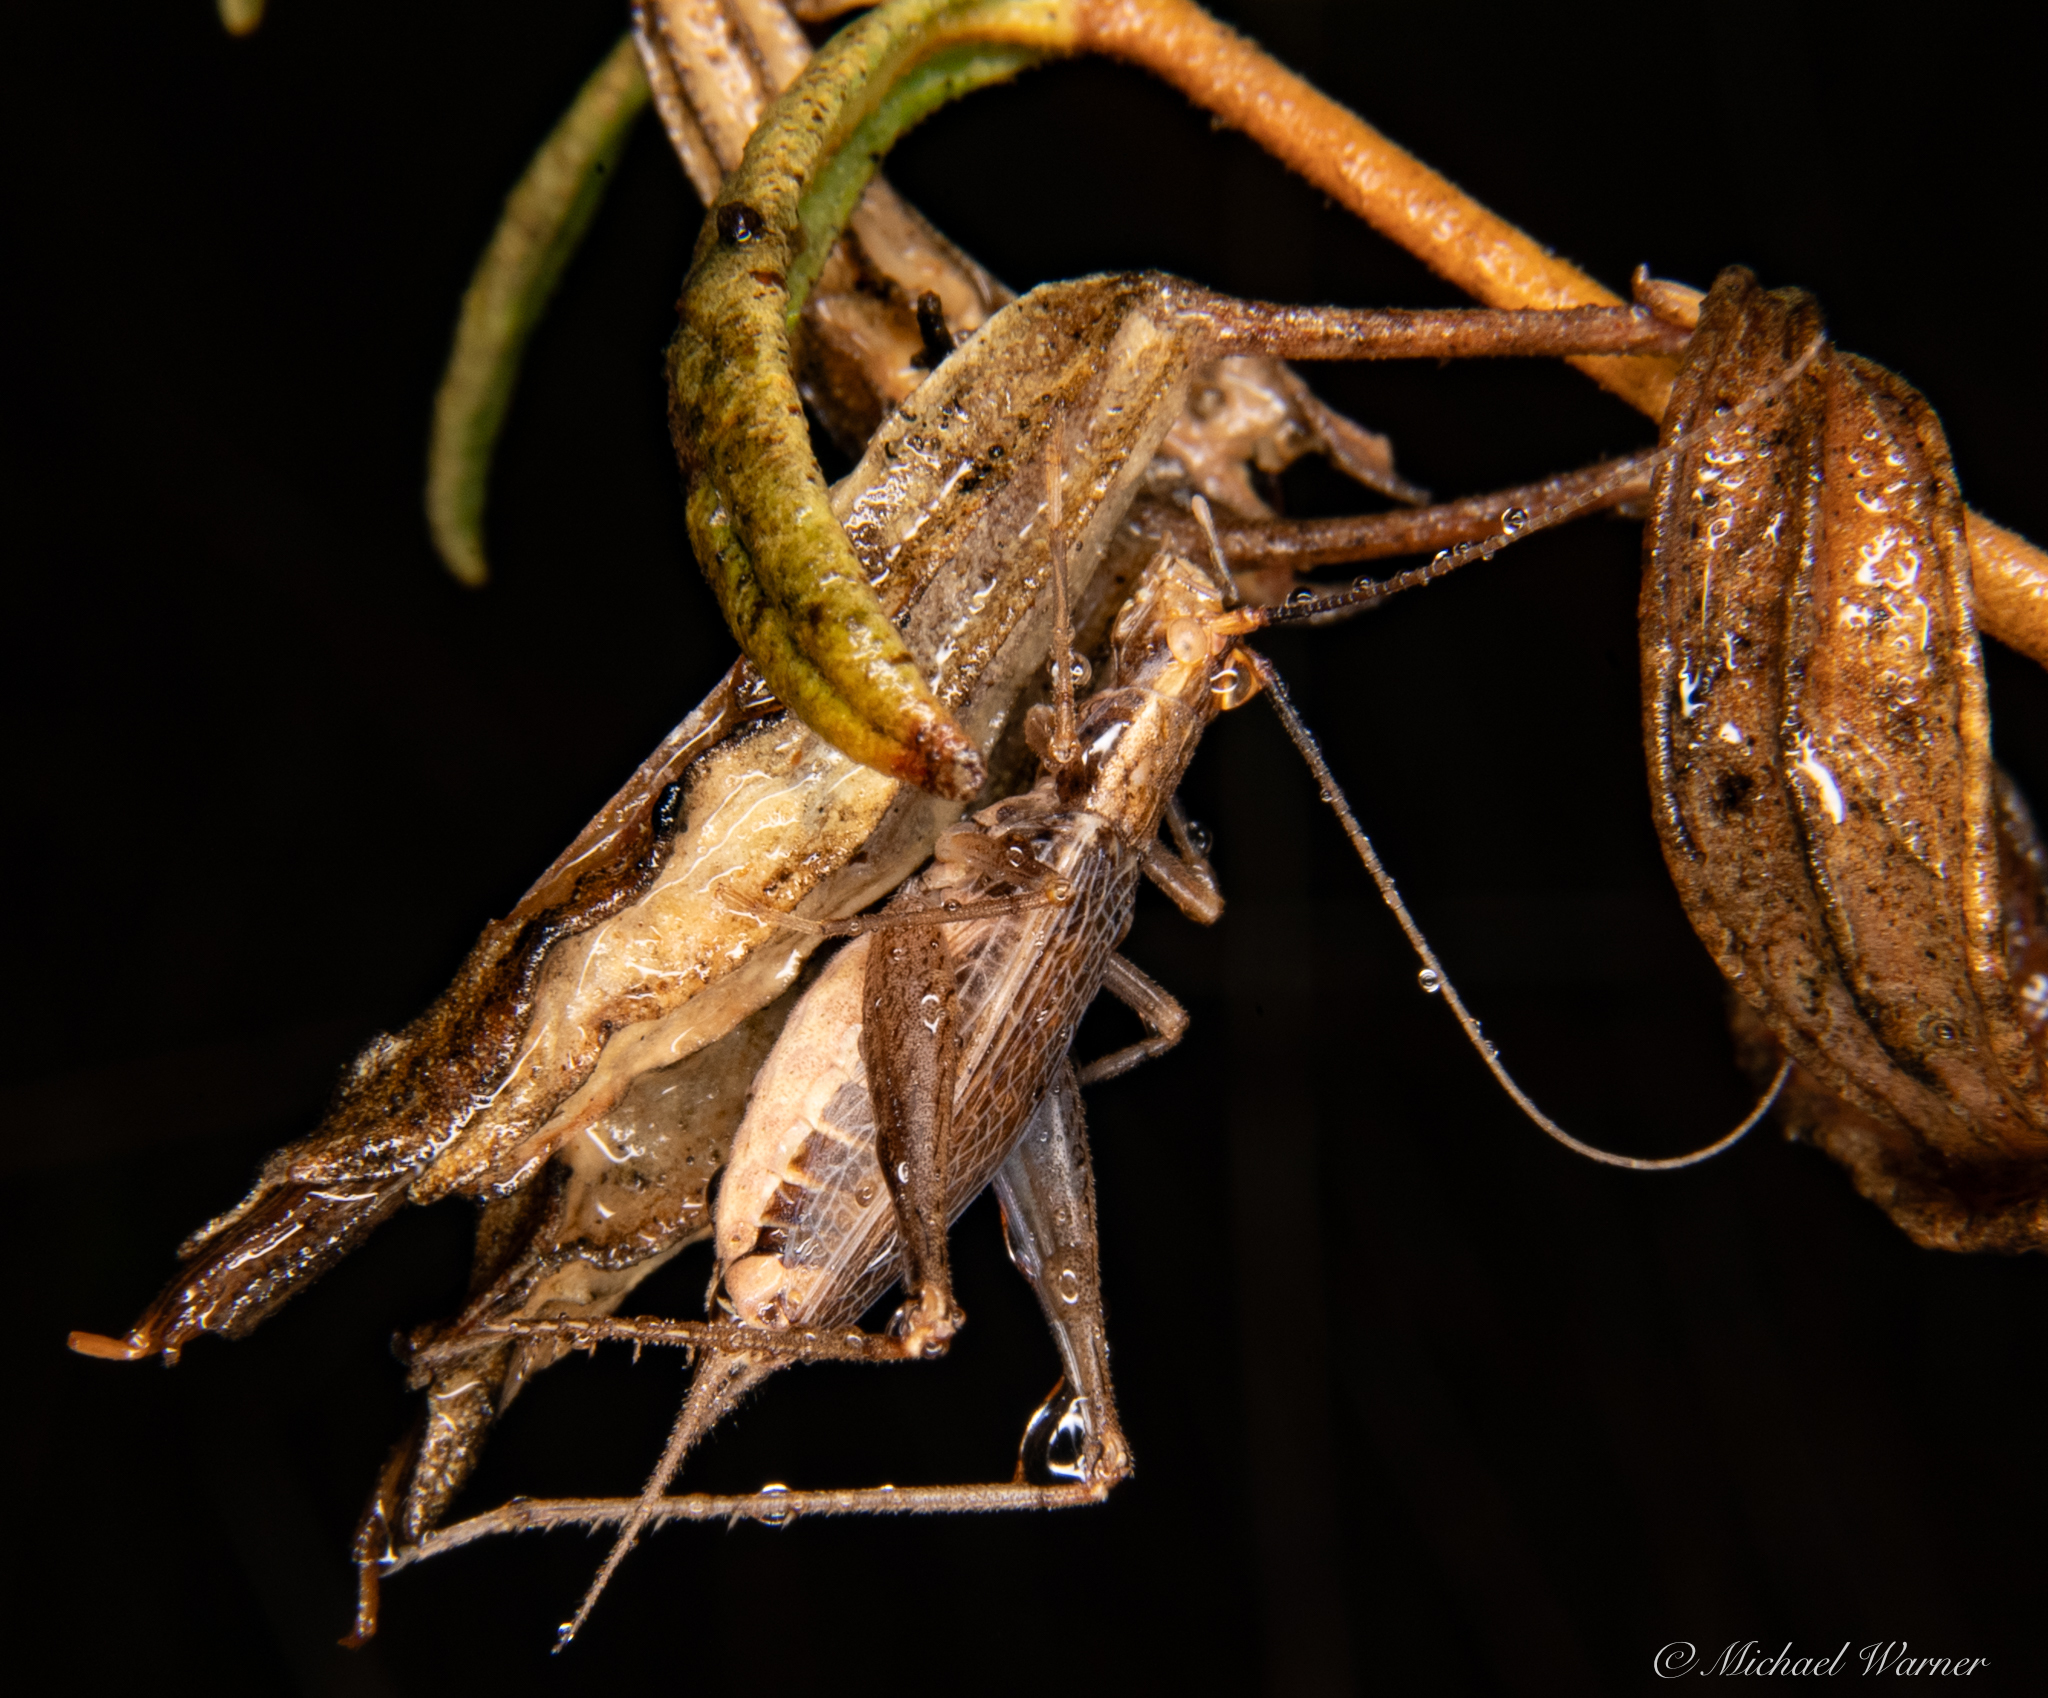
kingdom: Animalia
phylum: Arthropoda
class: Insecta
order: Orthoptera
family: Gryllidae
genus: Oecanthus
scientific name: Oecanthus californicus
